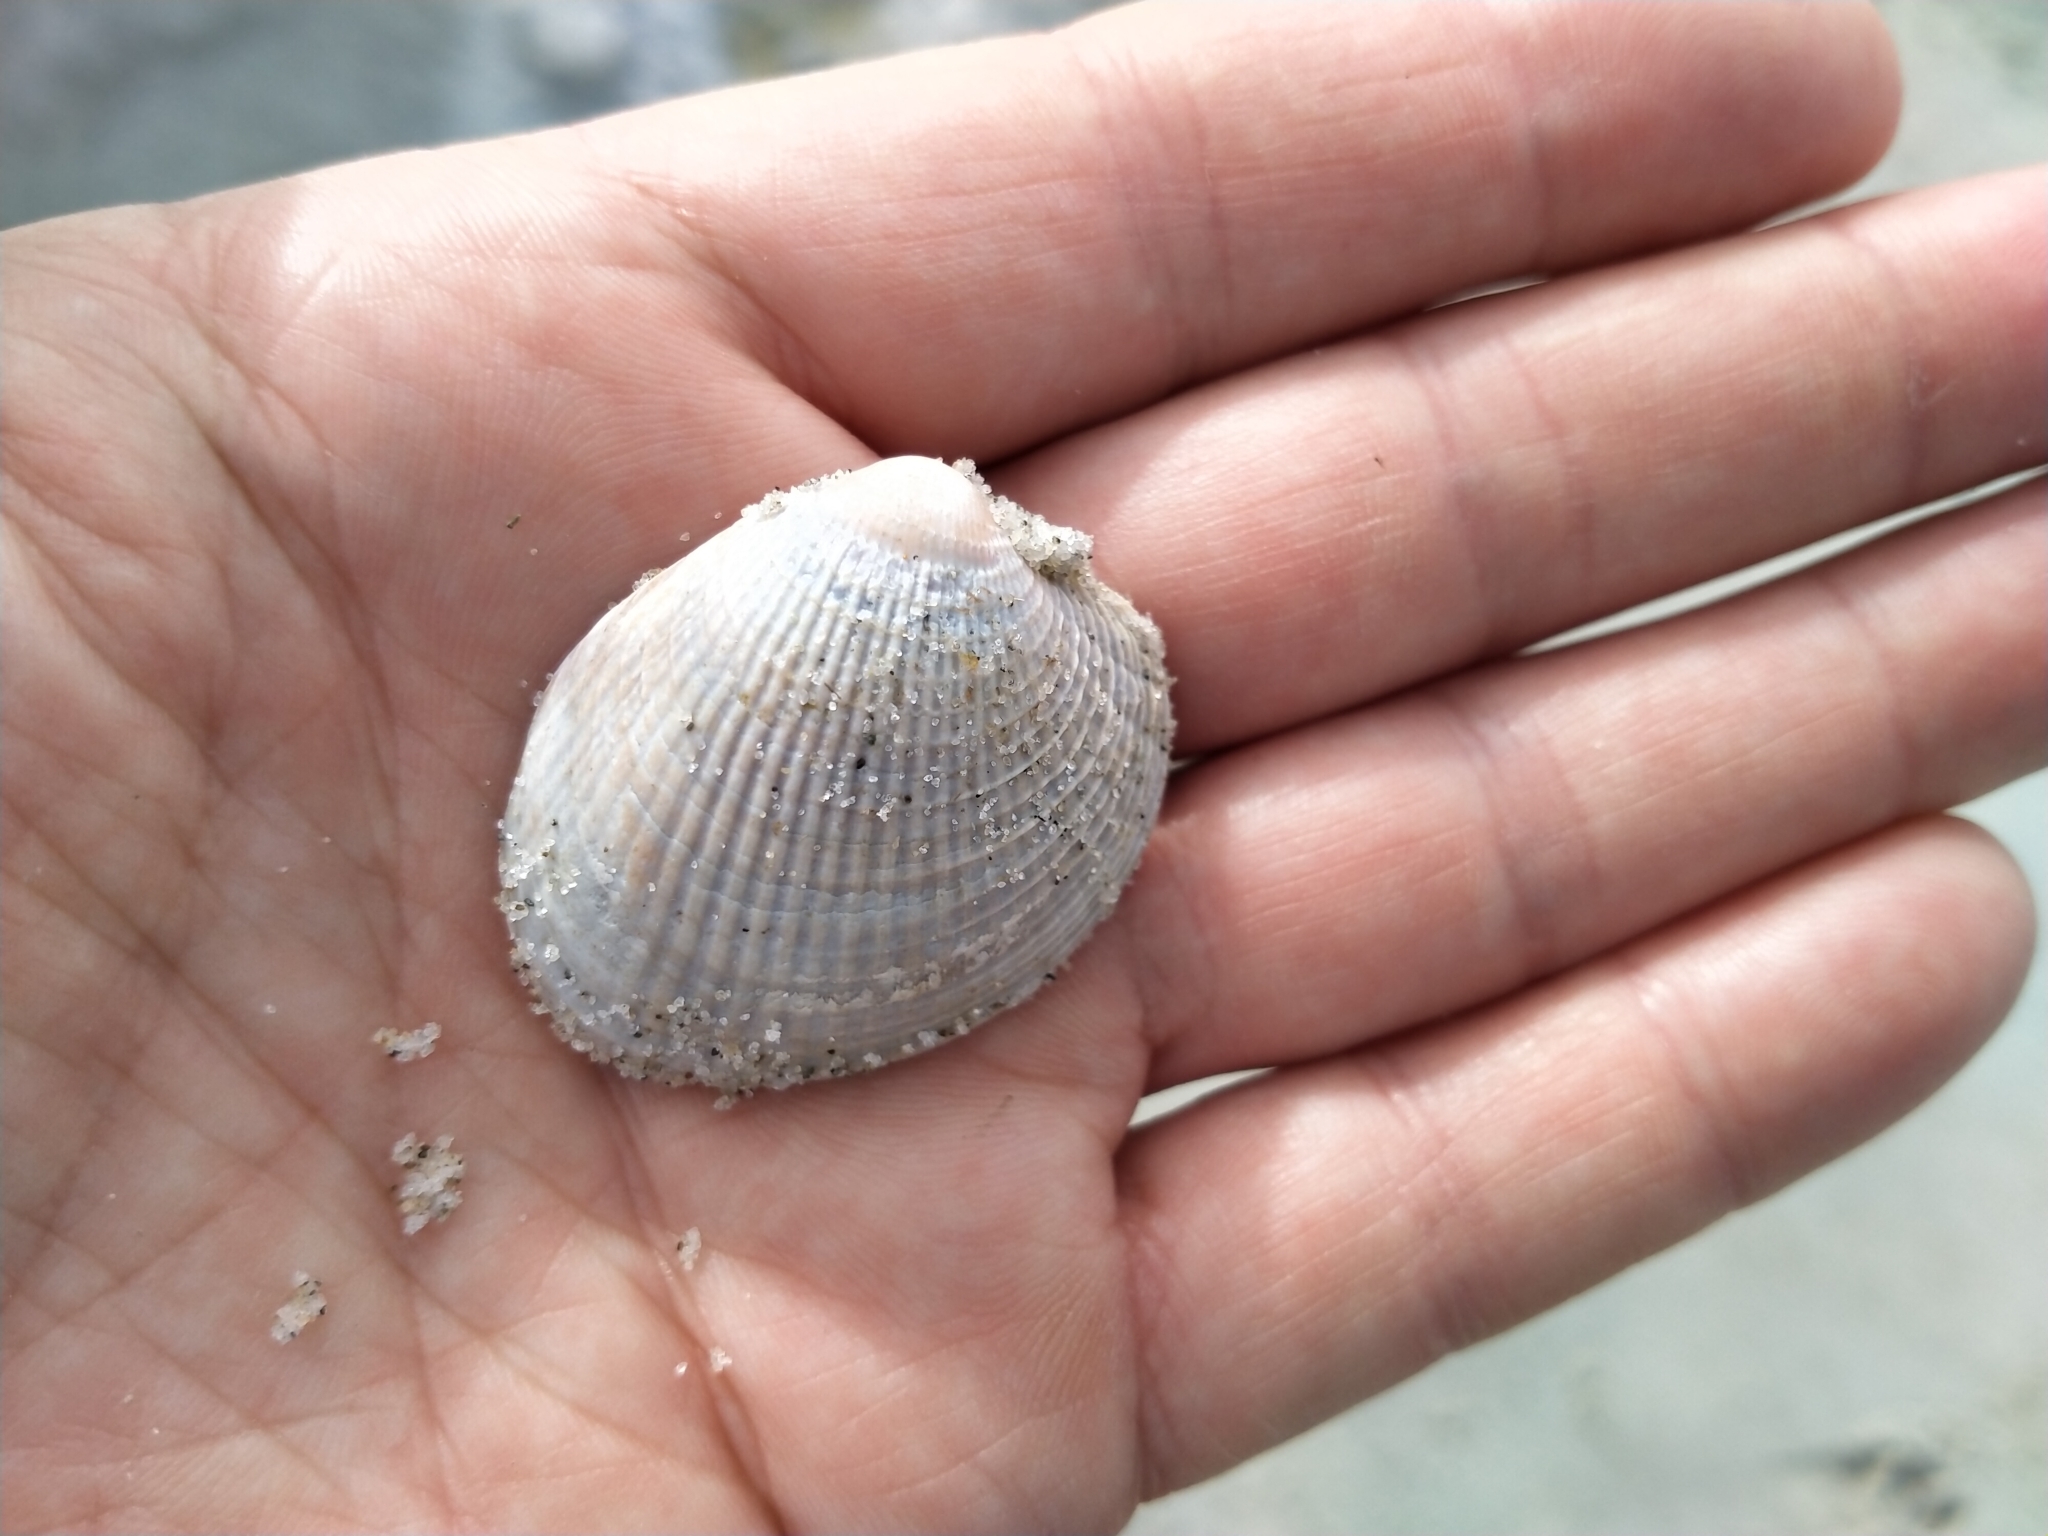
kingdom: Animalia
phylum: Mollusca
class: Bivalvia
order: Venerida
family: Veneridae
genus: Austrovenus
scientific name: Austrovenus stutchburyi
